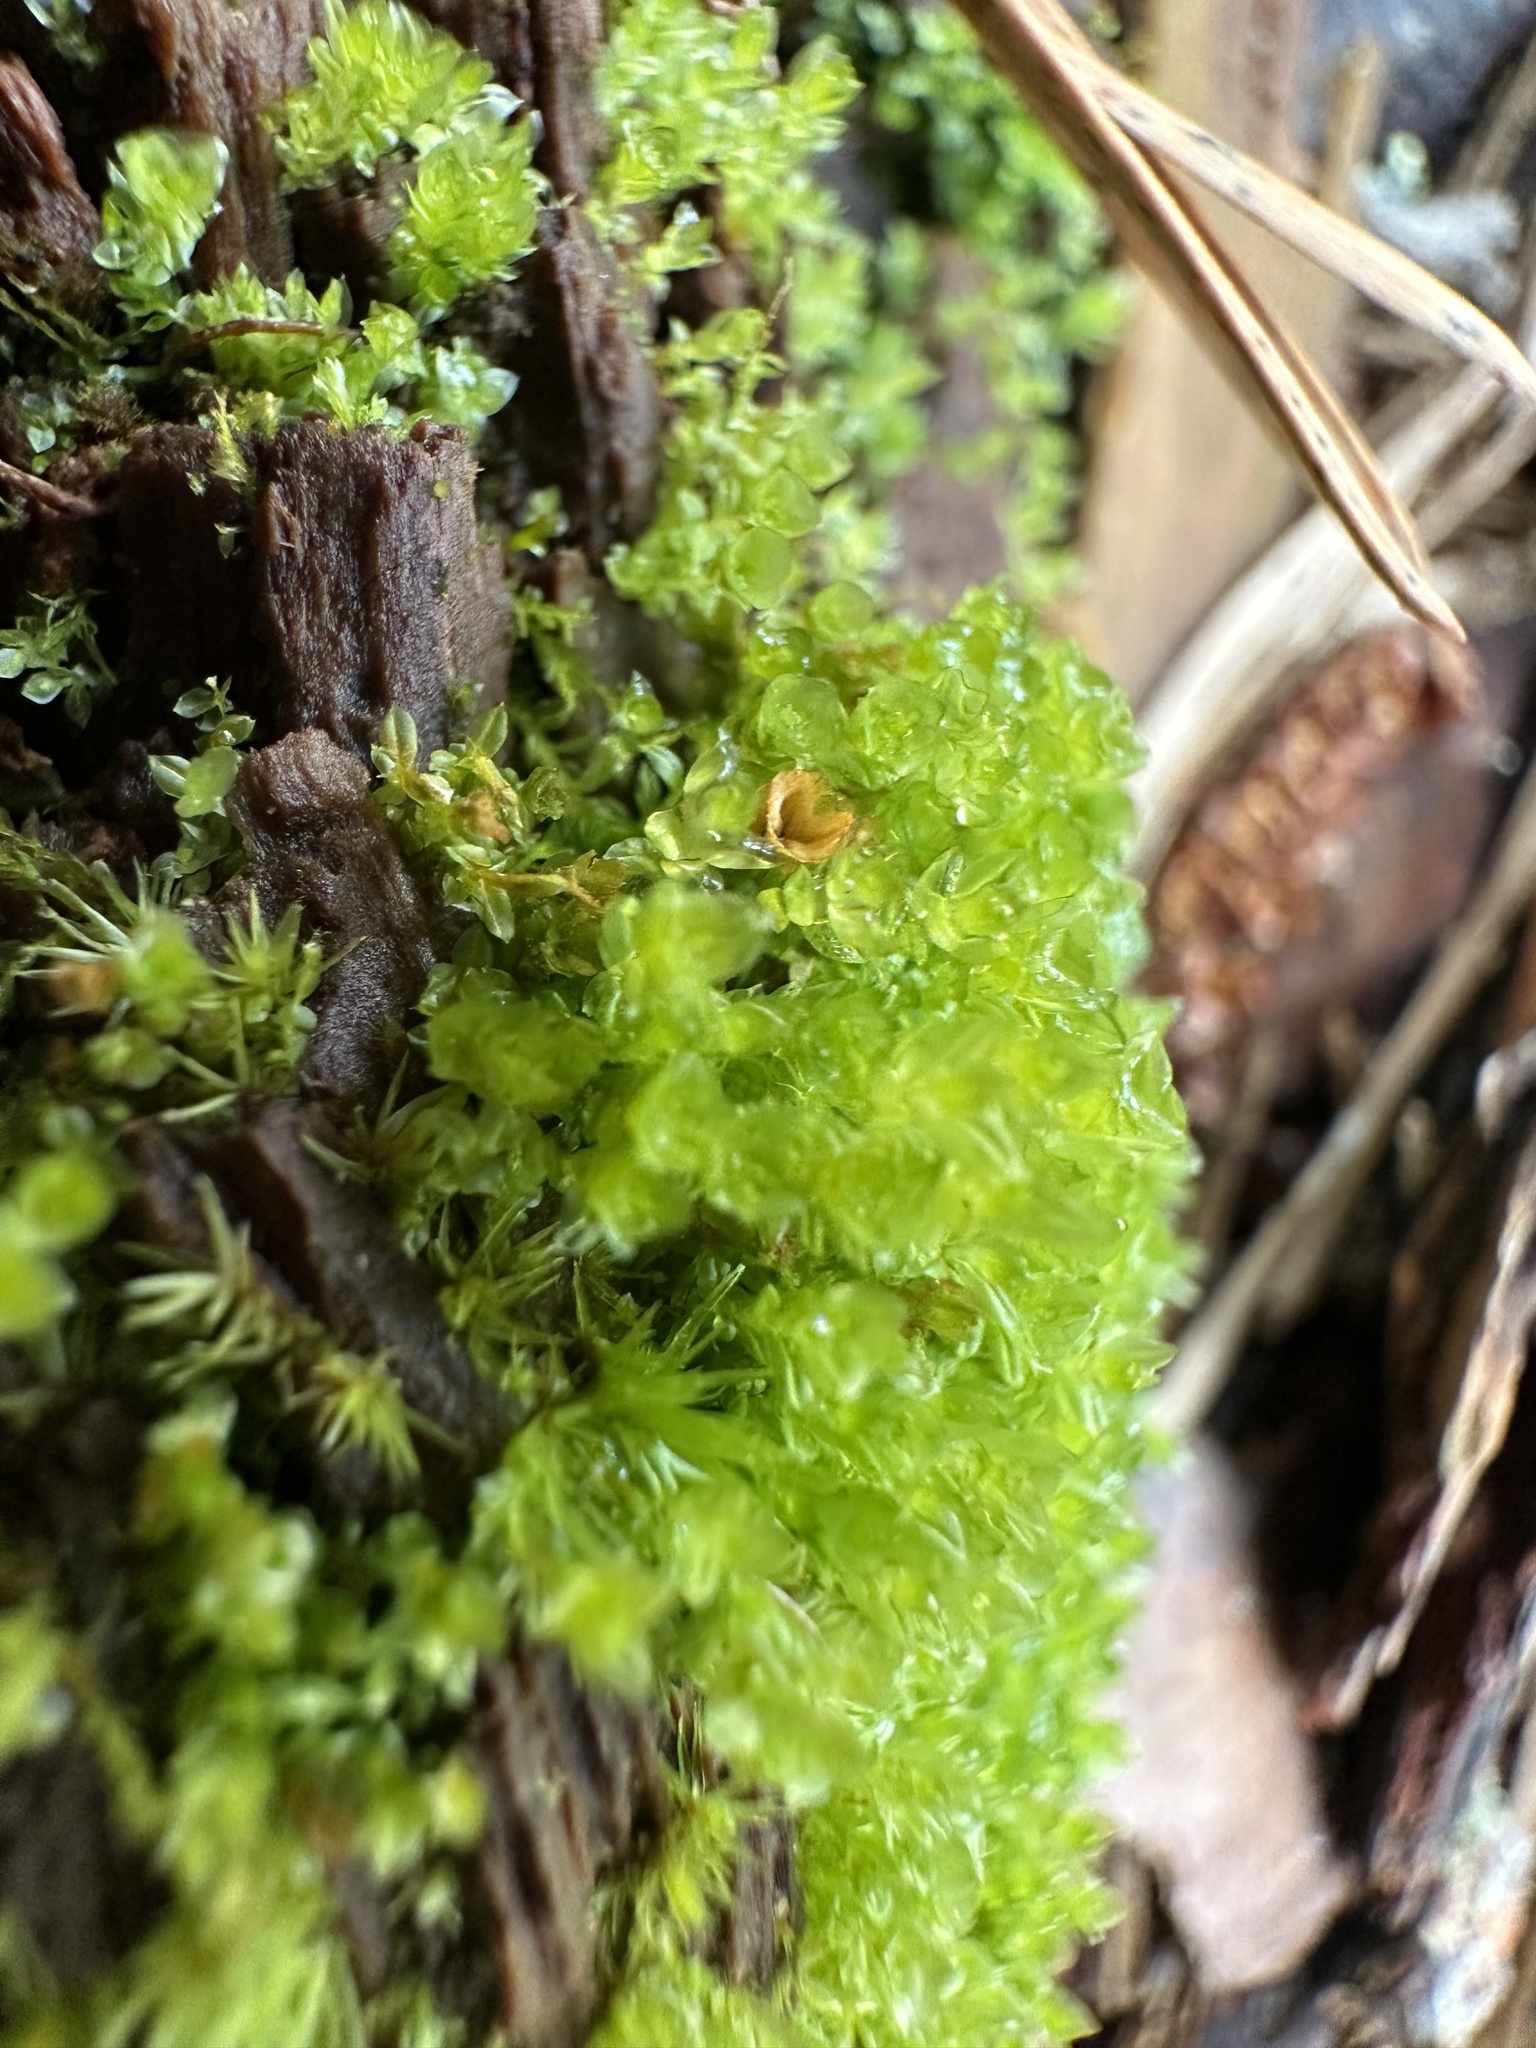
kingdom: Plantae
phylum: Bryophyta
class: Polytrichopsida
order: Tetraphidales
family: Tetraphidaceae
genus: Tetraphis
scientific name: Tetraphis pellucida
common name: Common four-toothed moss
